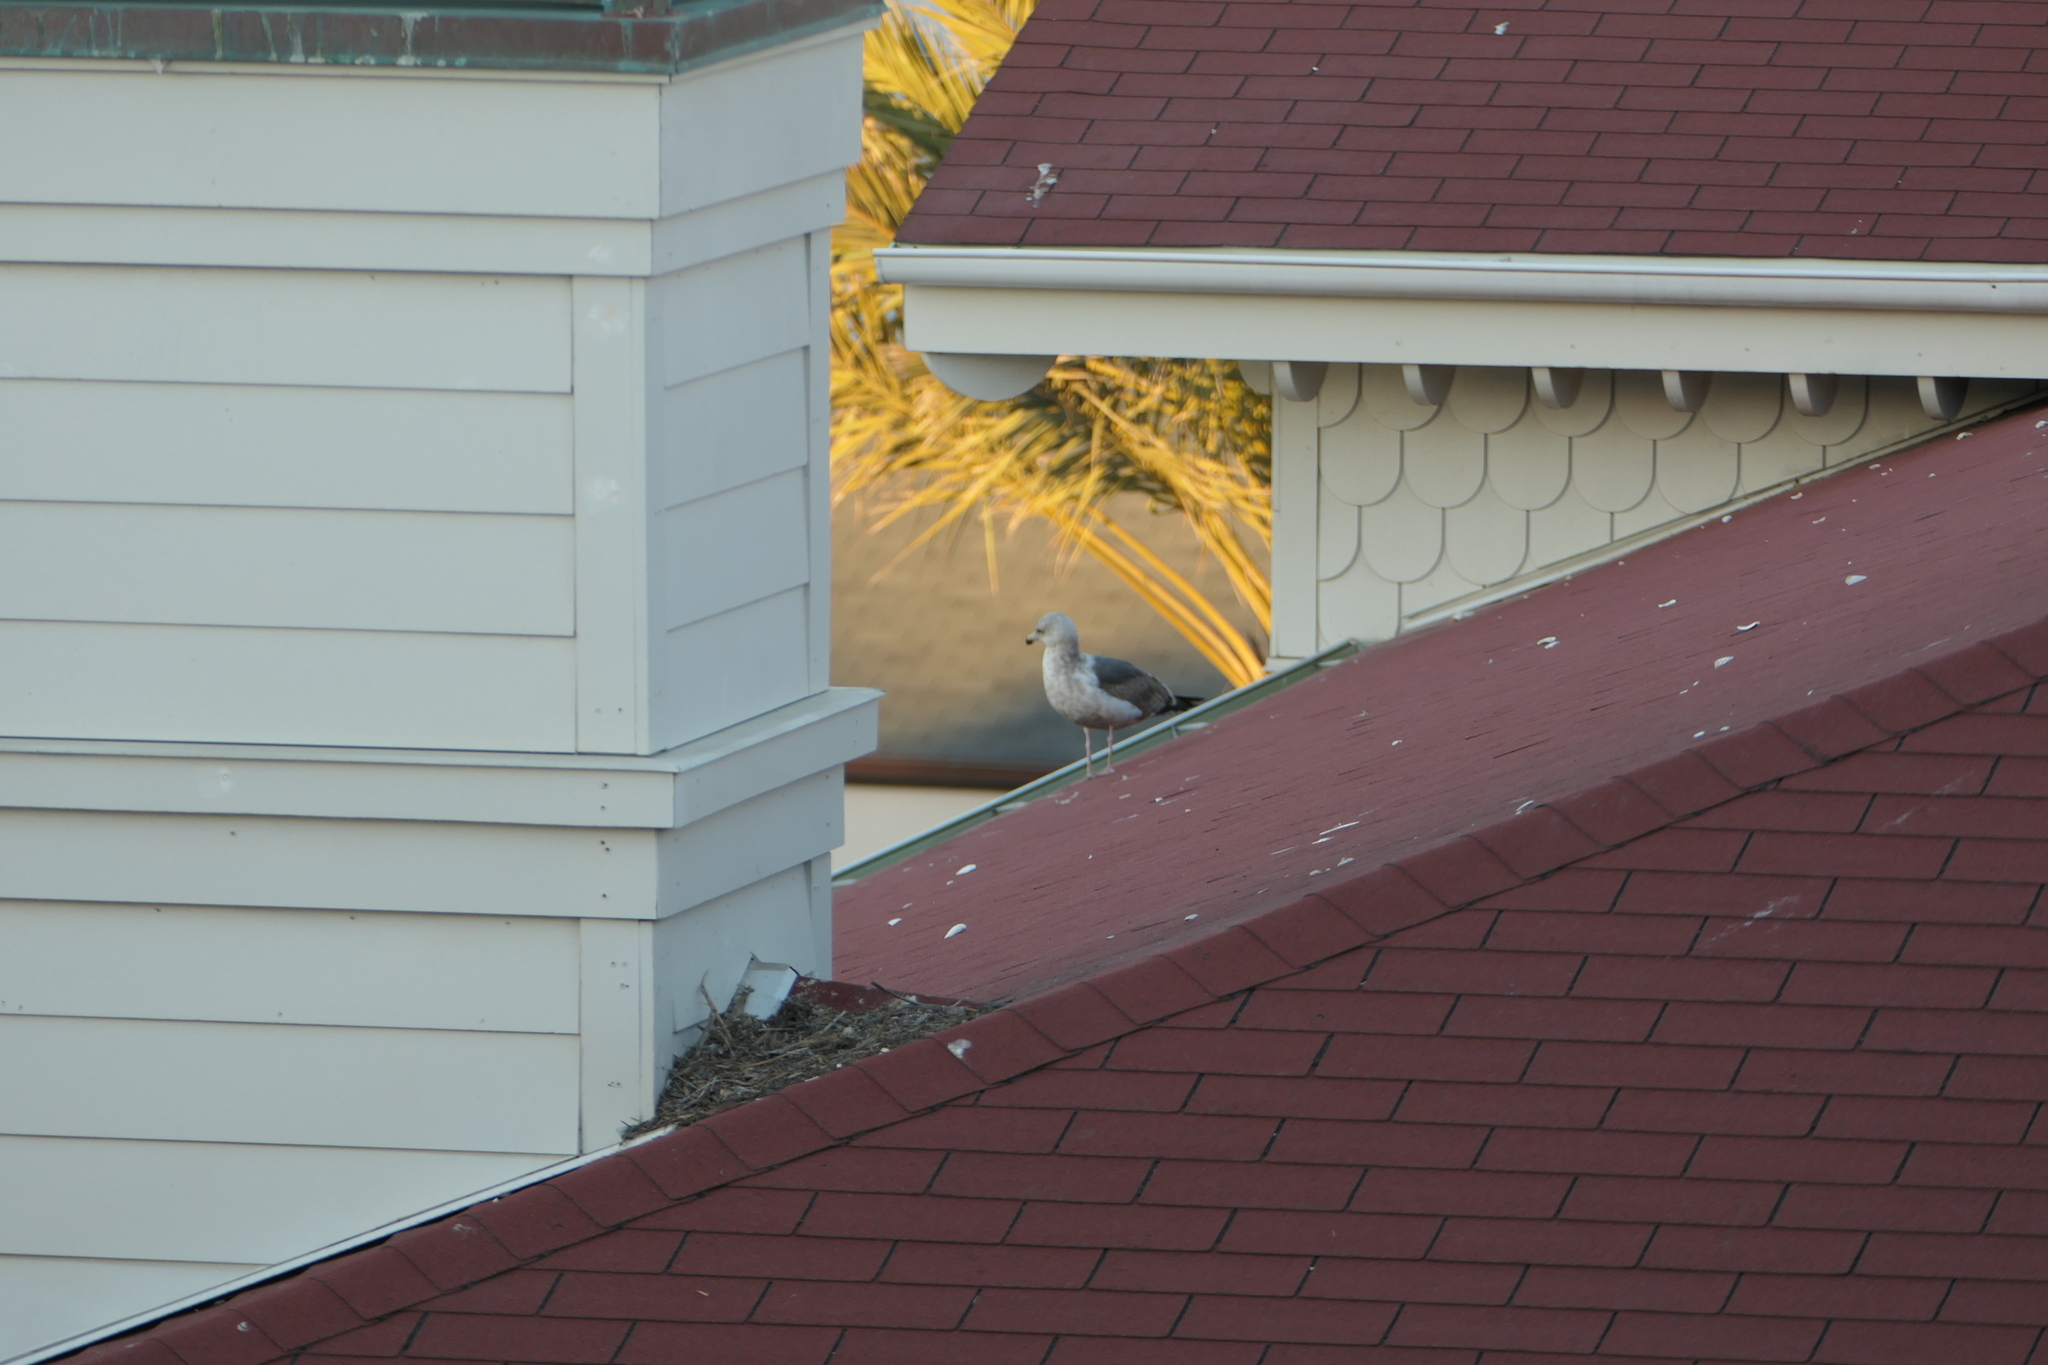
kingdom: Animalia
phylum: Chordata
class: Aves
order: Charadriiformes
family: Laridae
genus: Larus
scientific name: Larus occidentalis
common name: Western gull
